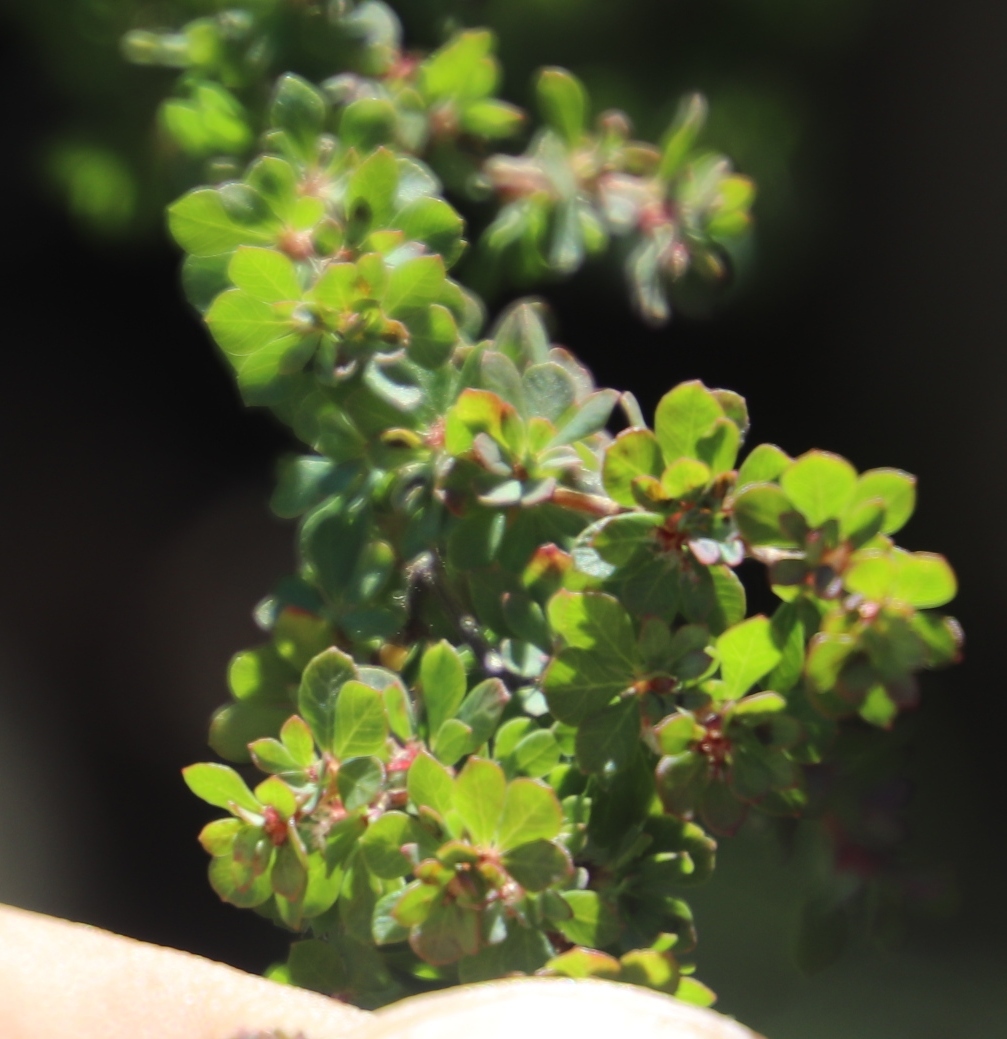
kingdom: Plantae
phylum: Tracheophyta
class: Magnoliopsida
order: Rosales
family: Rosaceae
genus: Cliffortia
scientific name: Cliffortia propinqua
